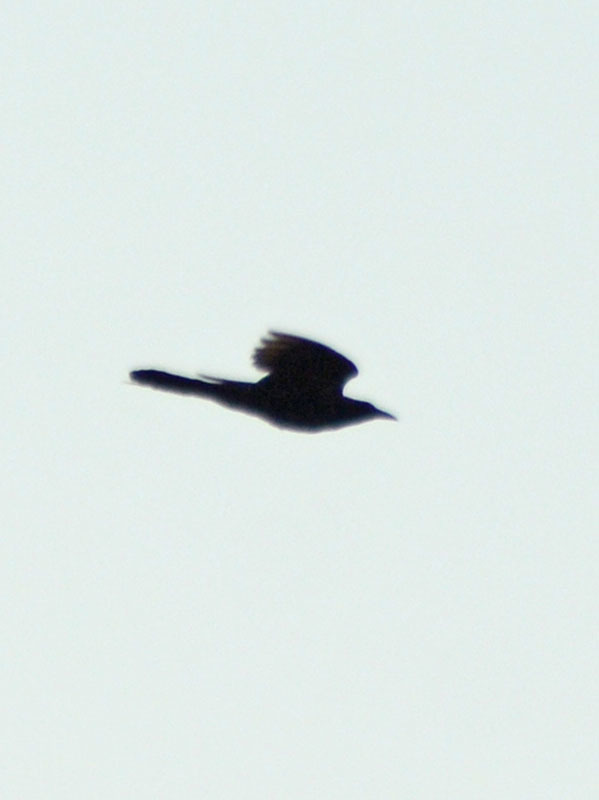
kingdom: Animalia
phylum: Chordata
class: Aves
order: Passeriformes
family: Icteridae
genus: Quiscalus
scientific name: Quiscalus mexicanus
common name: Great-tailed grackle
